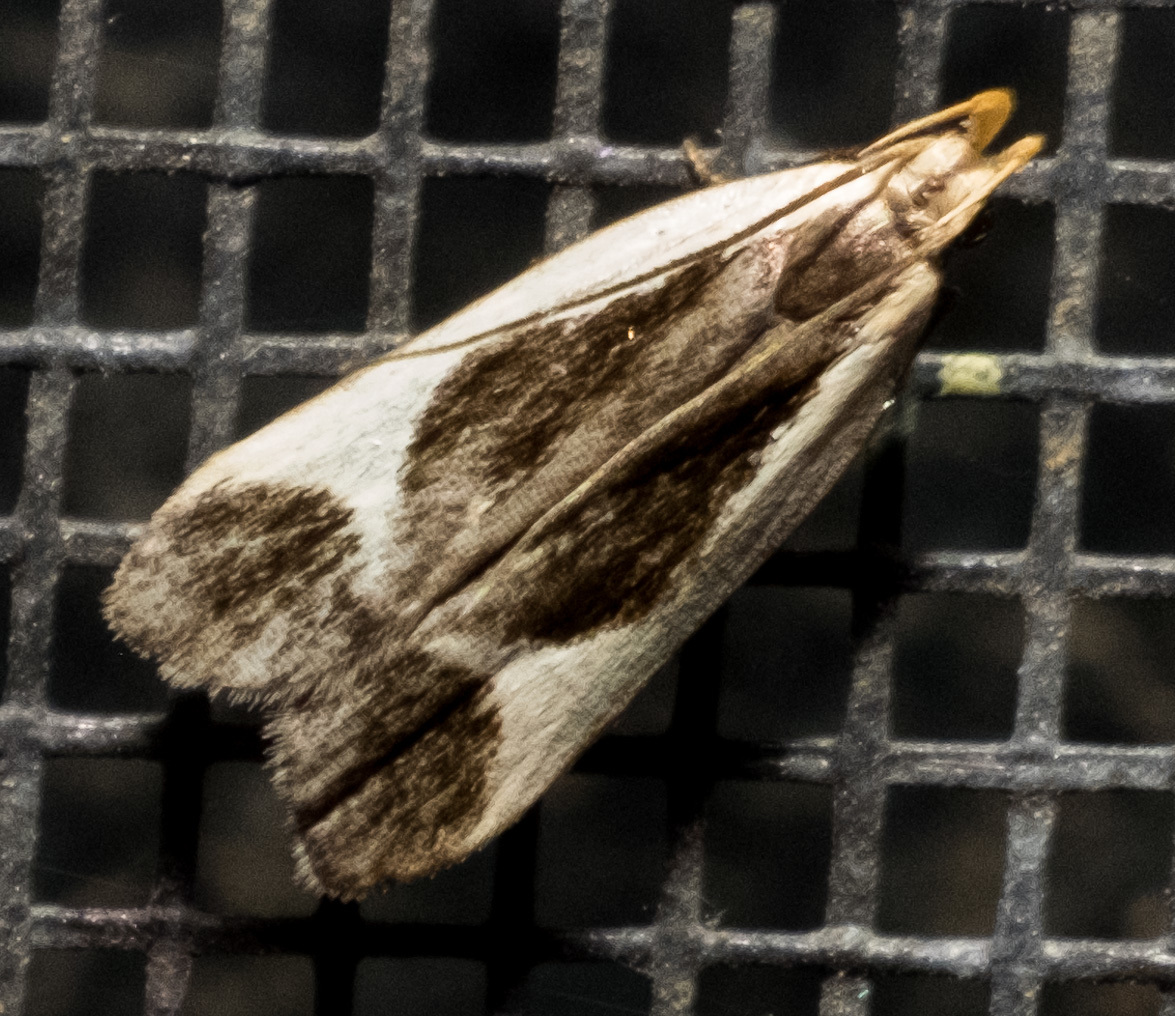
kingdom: Animalia
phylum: Arthropoda
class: Insecta
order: Lepidoptera
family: Gelechiidae
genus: Dichomeris
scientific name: Dichomeris flavocostella
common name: Cream-edged dichomeris moth
